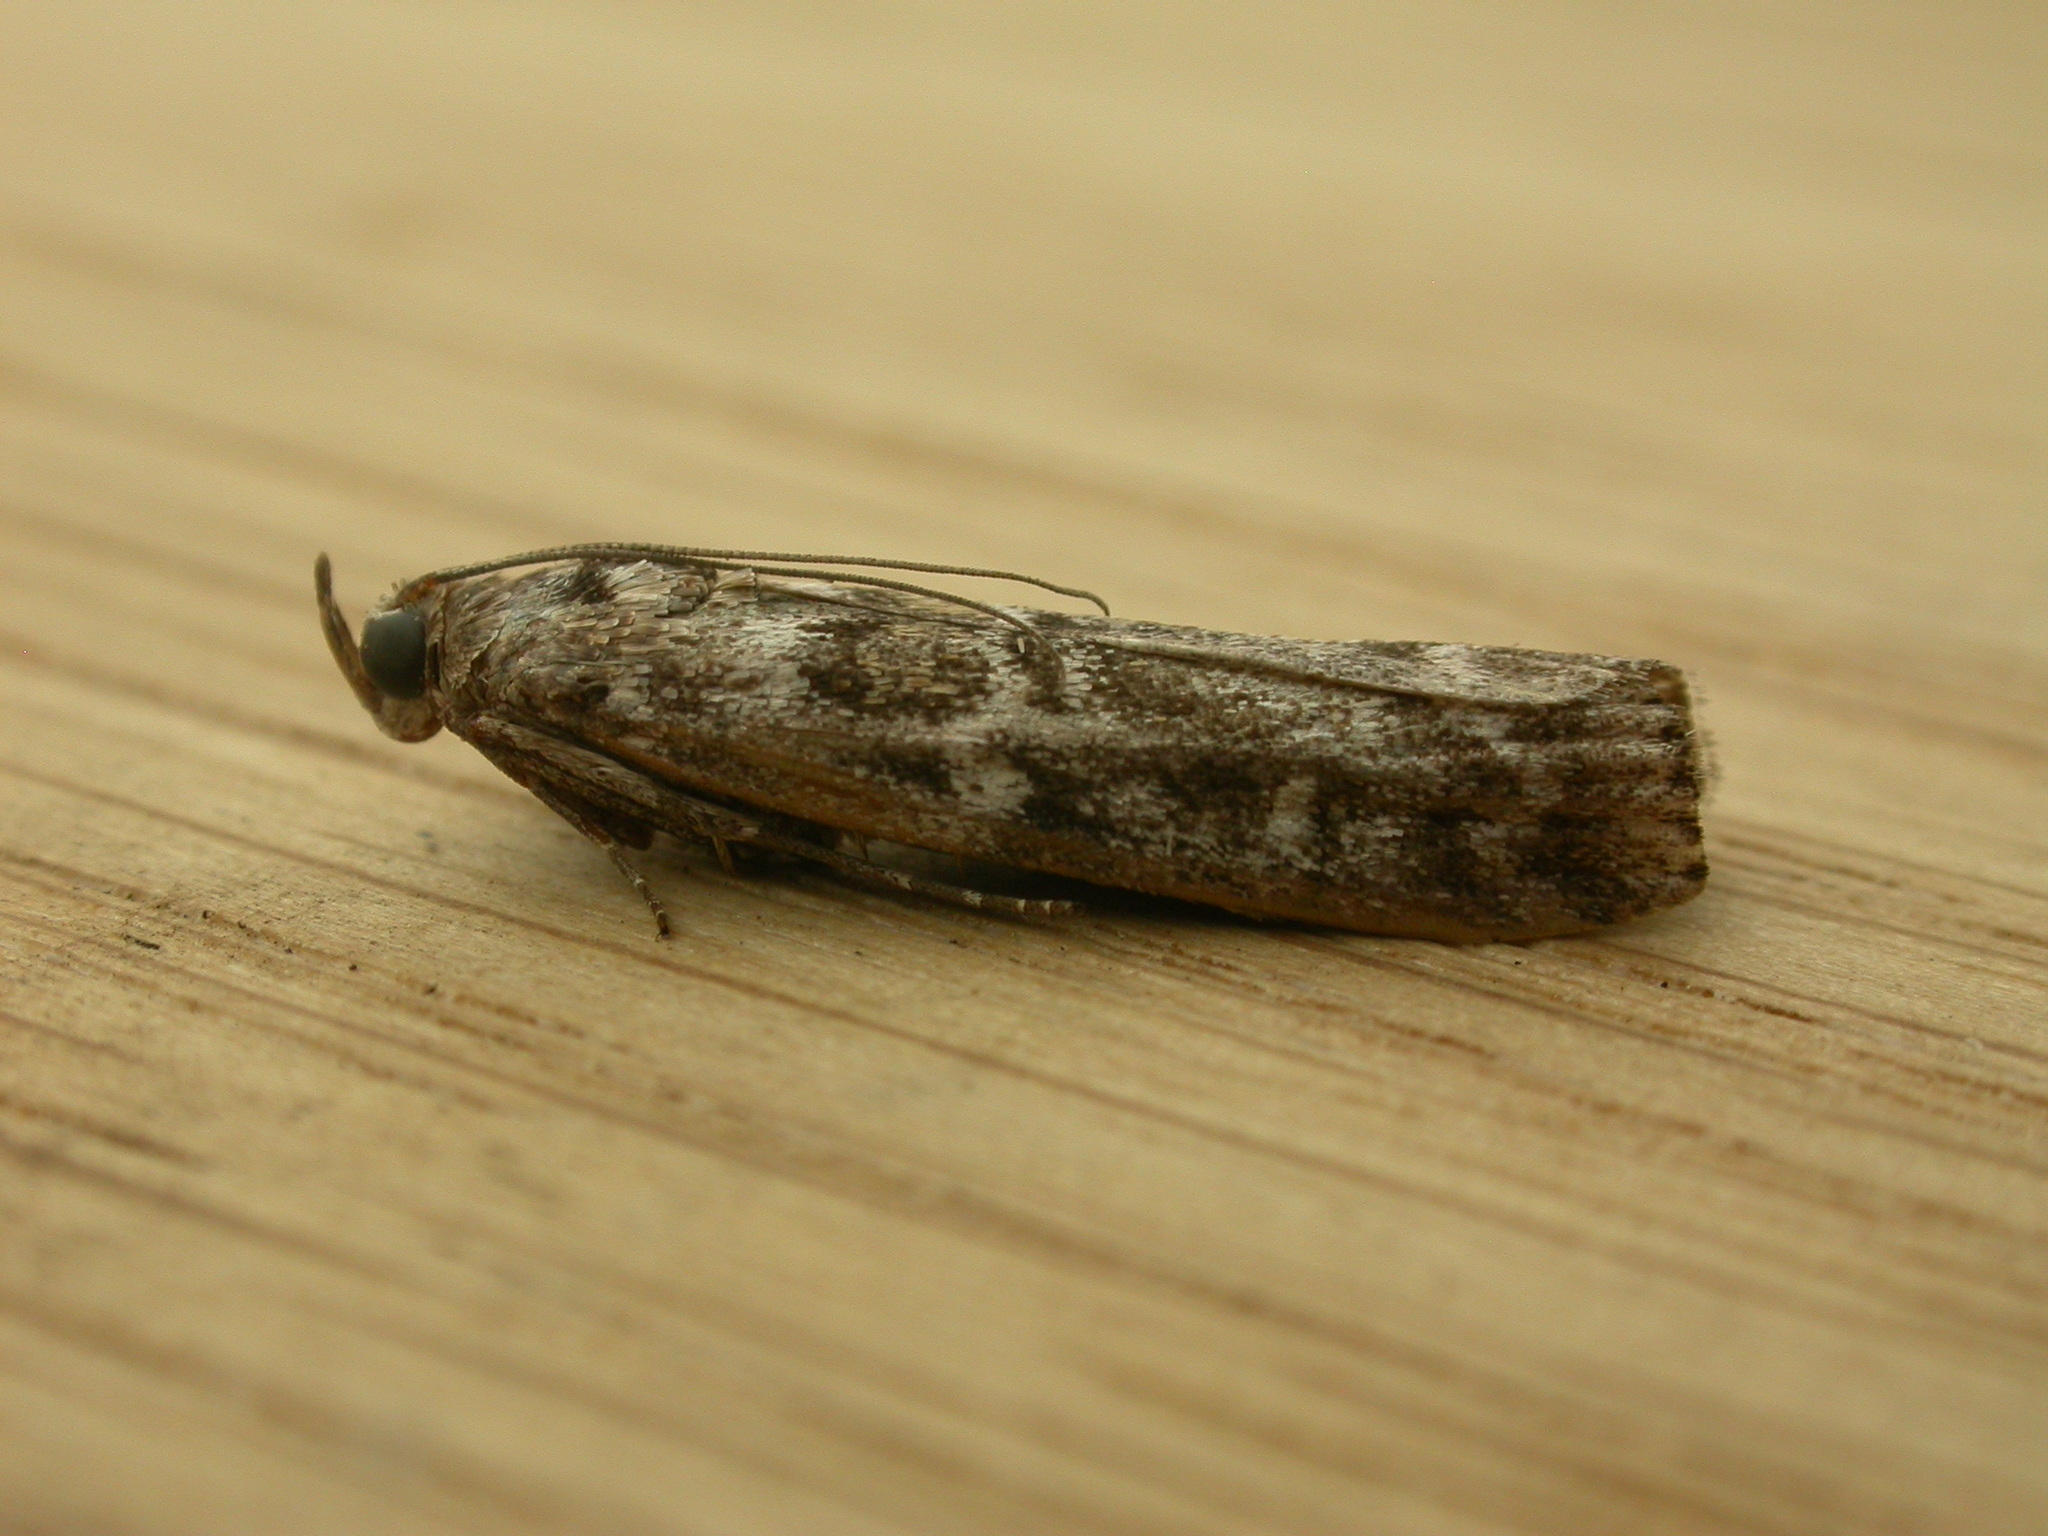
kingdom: Animalia
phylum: Arthropoda
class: Insecta
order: Lepidoptera
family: Pyralidae
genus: Dioryctria
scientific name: Dioryctria abietella
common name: Dark pine knot-horn
